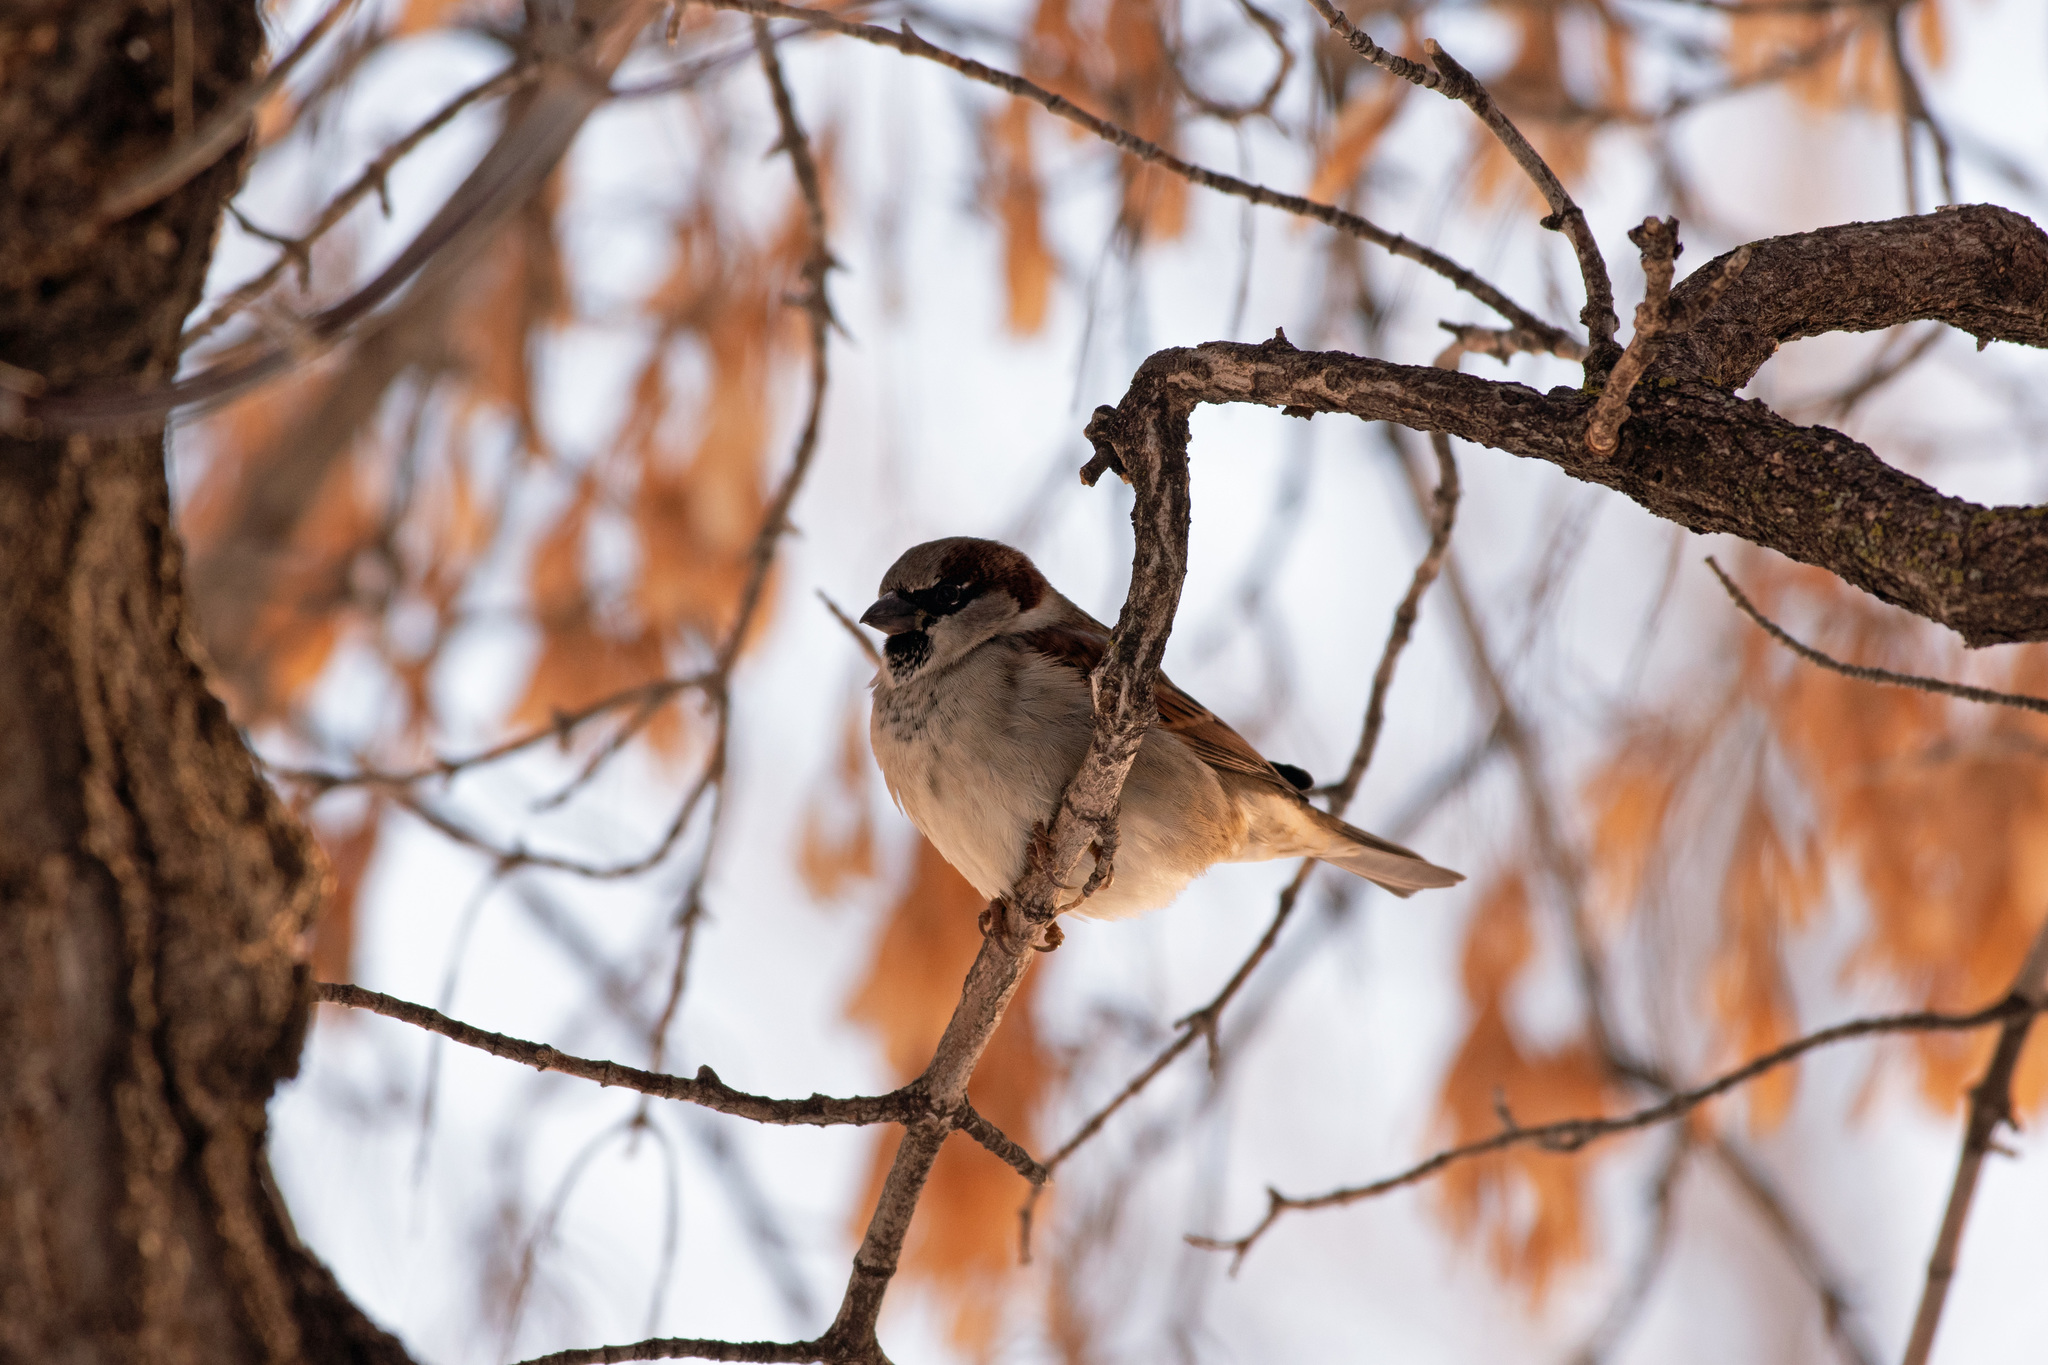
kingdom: Animalia
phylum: Chordata
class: Aves
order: Passeriformes
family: Passeridae
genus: Passer
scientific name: Passer domesticus
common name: House sparrow
